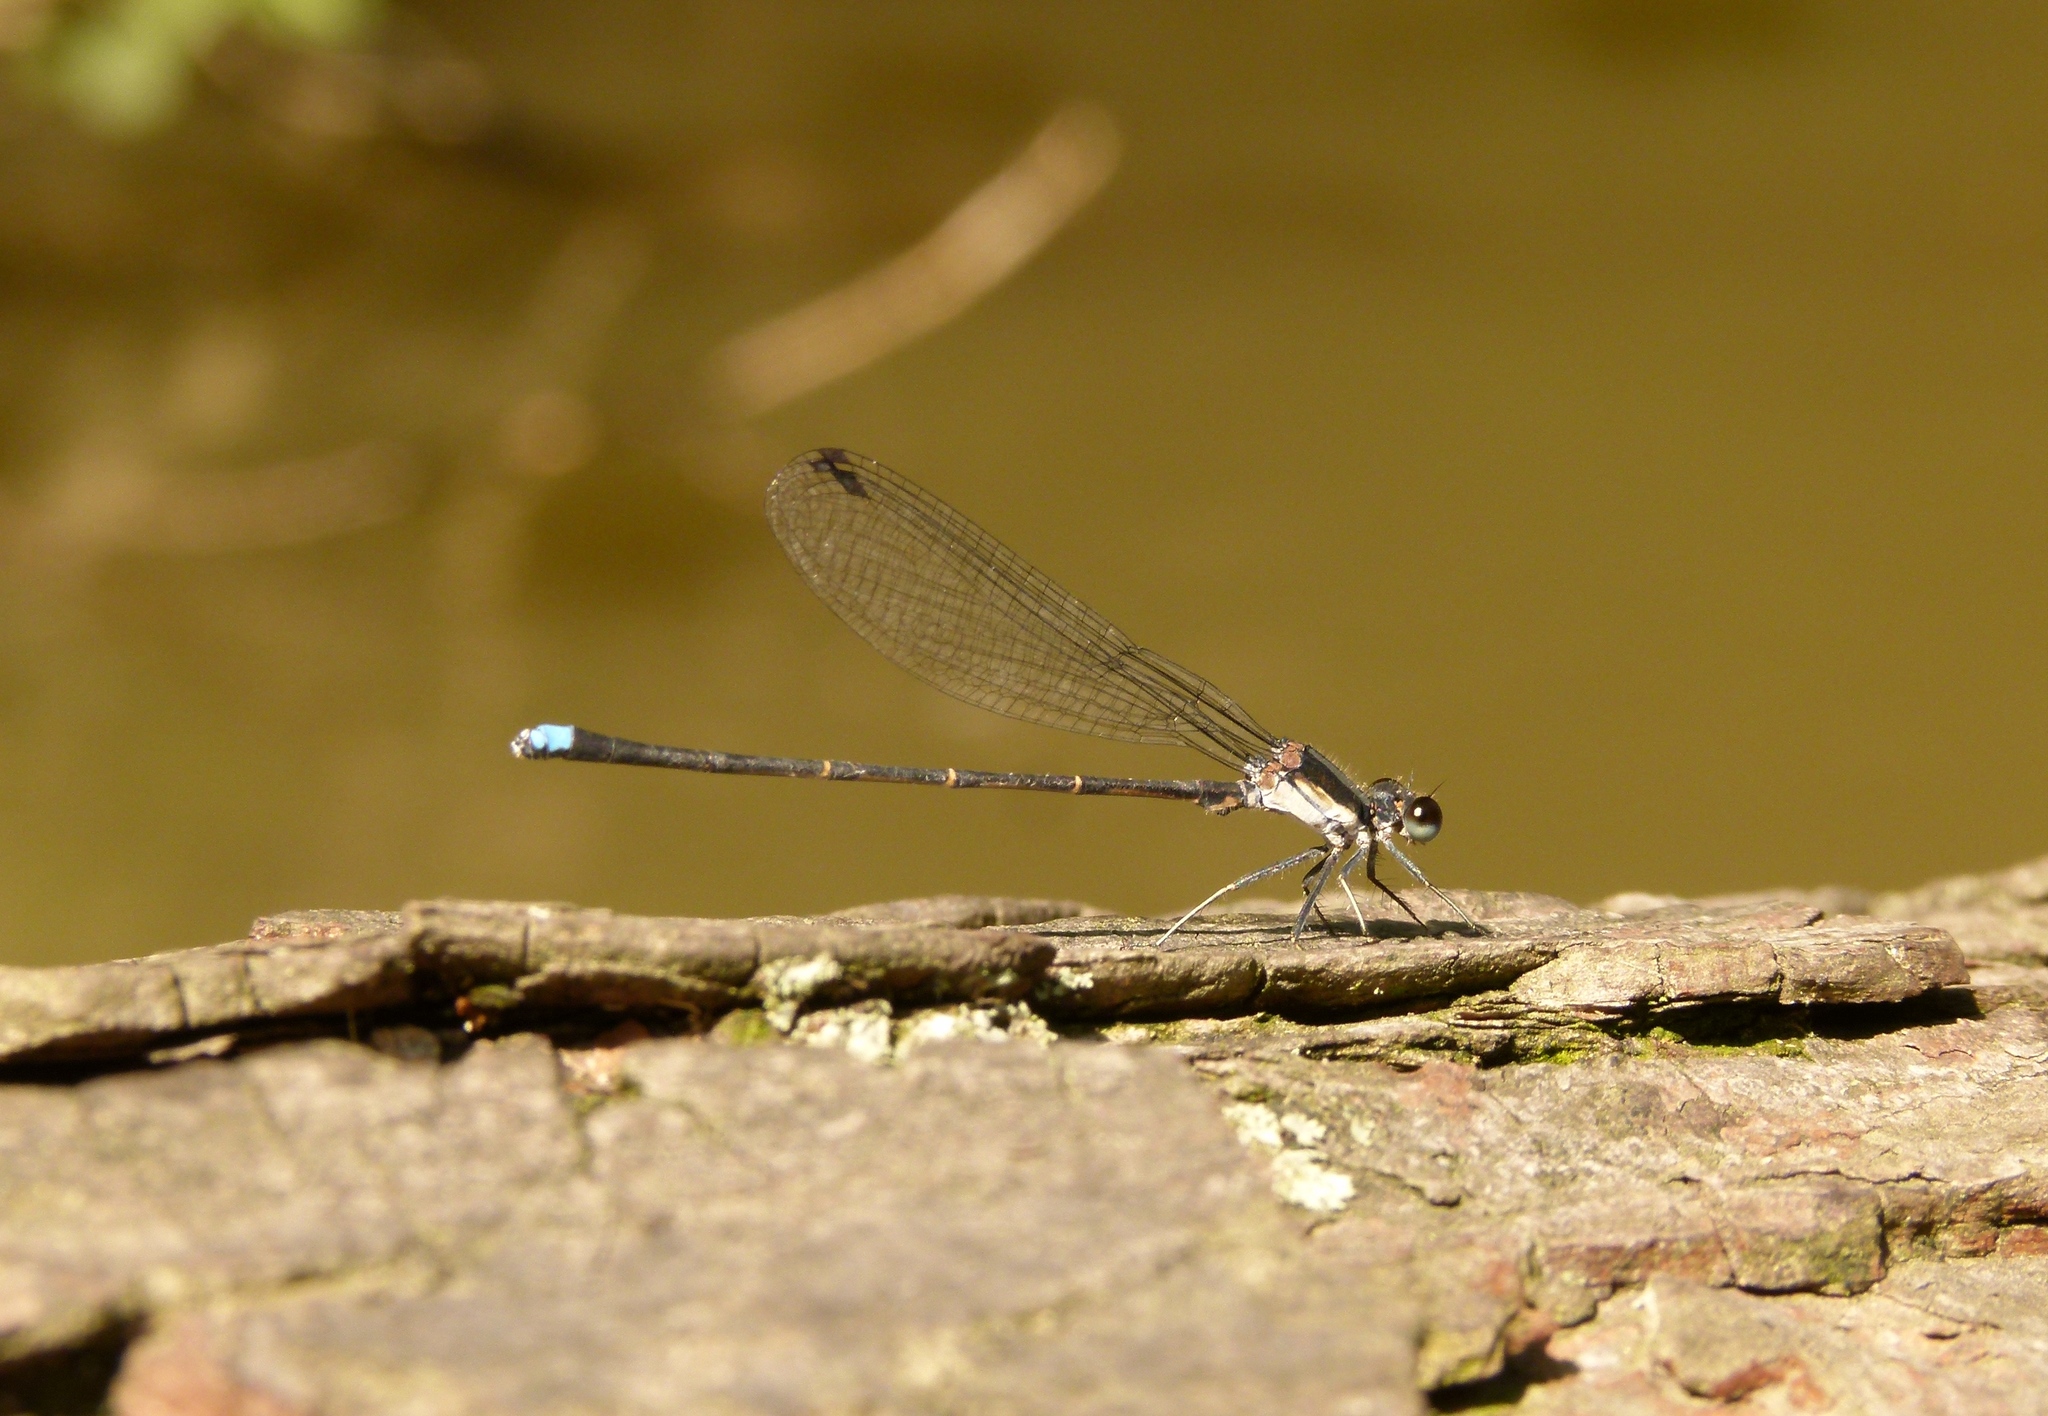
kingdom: Animalia
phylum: Arthropoda
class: Insecta
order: Odonata
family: Coenagrionidae
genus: Argia
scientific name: Argia tibialis
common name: Blue-tipped dancer
